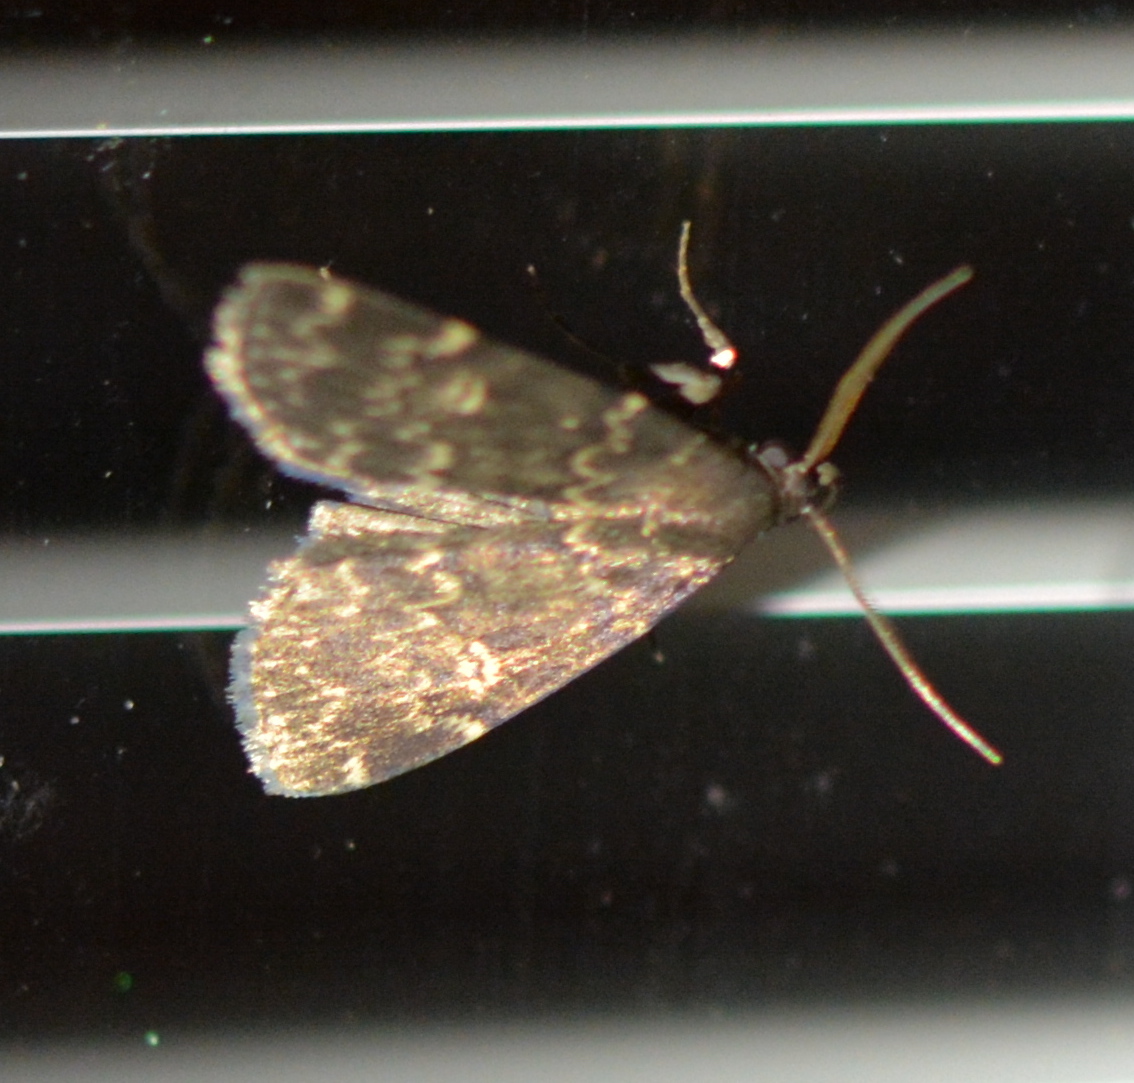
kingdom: Animalia
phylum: Arthropoda
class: Insecta
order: Lepidoptera
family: Erebidae
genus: Idia
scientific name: Idia lubricalis
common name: Twin-striped tabby
